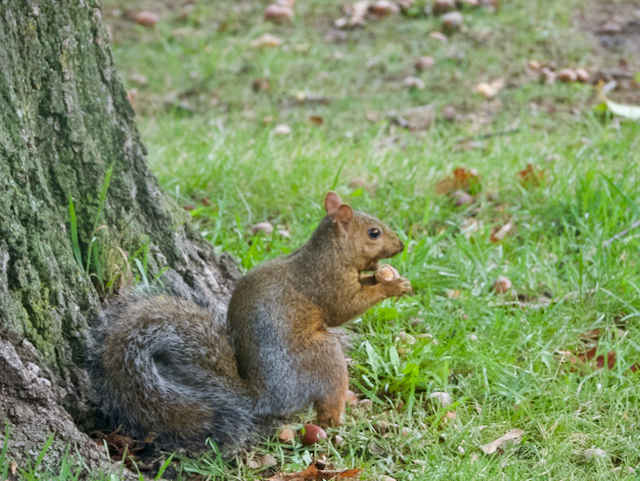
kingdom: Animalia
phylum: Chordata
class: Mammalia
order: Rodentia
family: Sciuridae
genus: Sciurus
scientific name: Sciurus carolinensis
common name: Eastern gray squirrel
